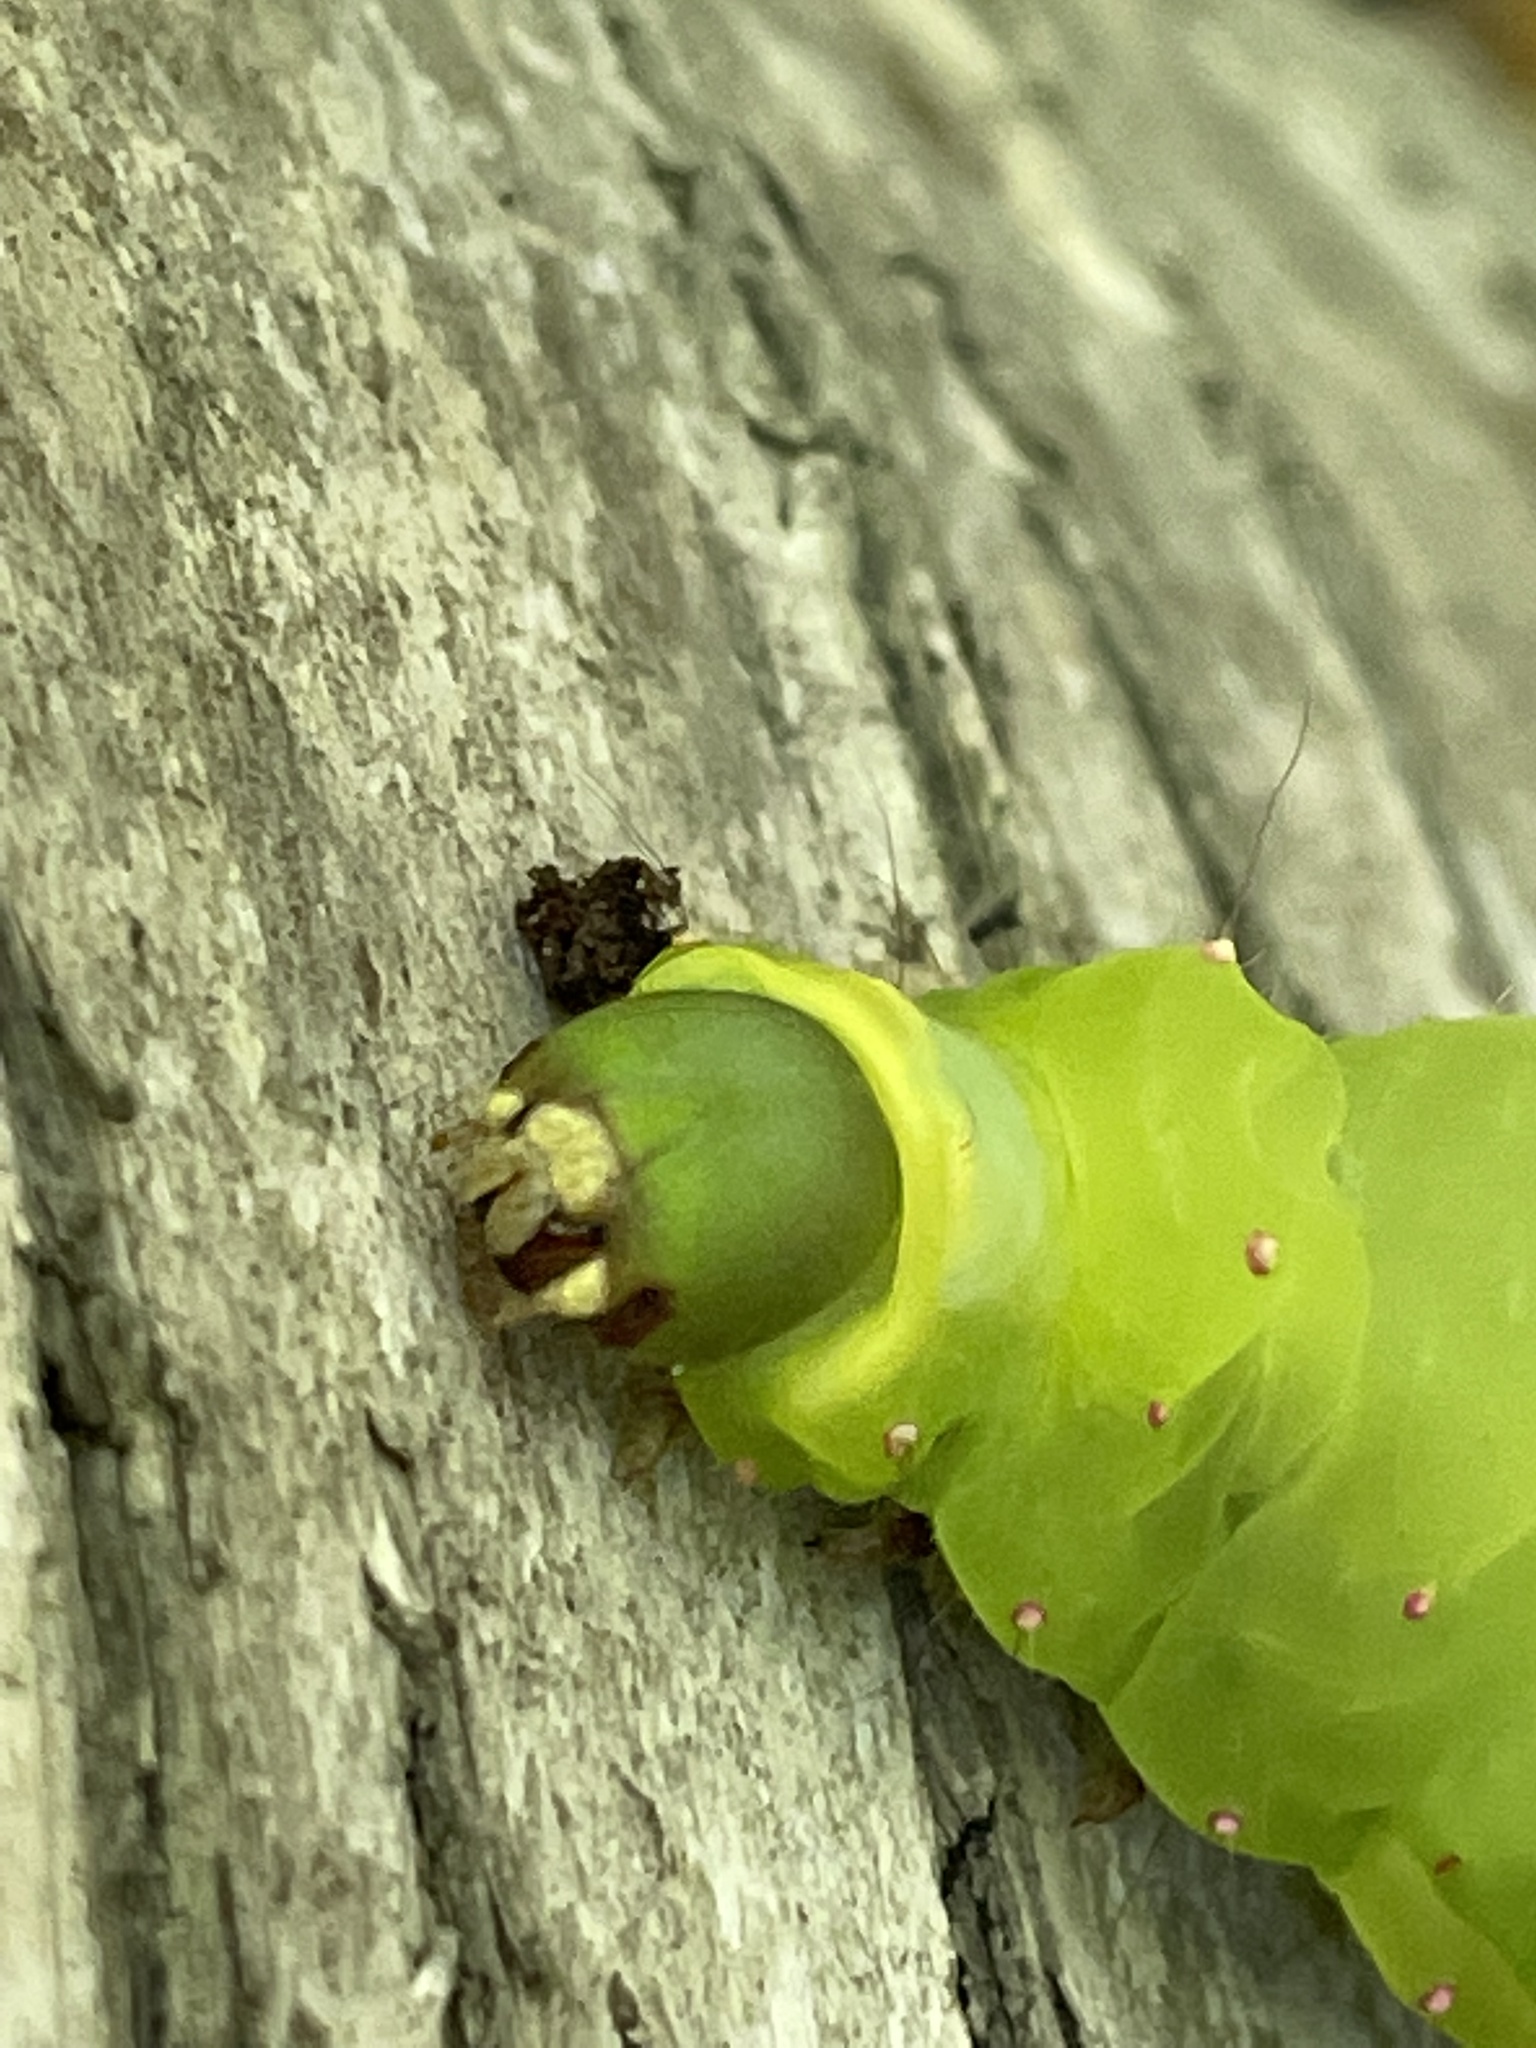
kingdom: Animalia
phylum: Arthropoda
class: Insecta
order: Lepidoptera
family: Saturniidae
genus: Actias
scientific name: Actias luna
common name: Luna moth
